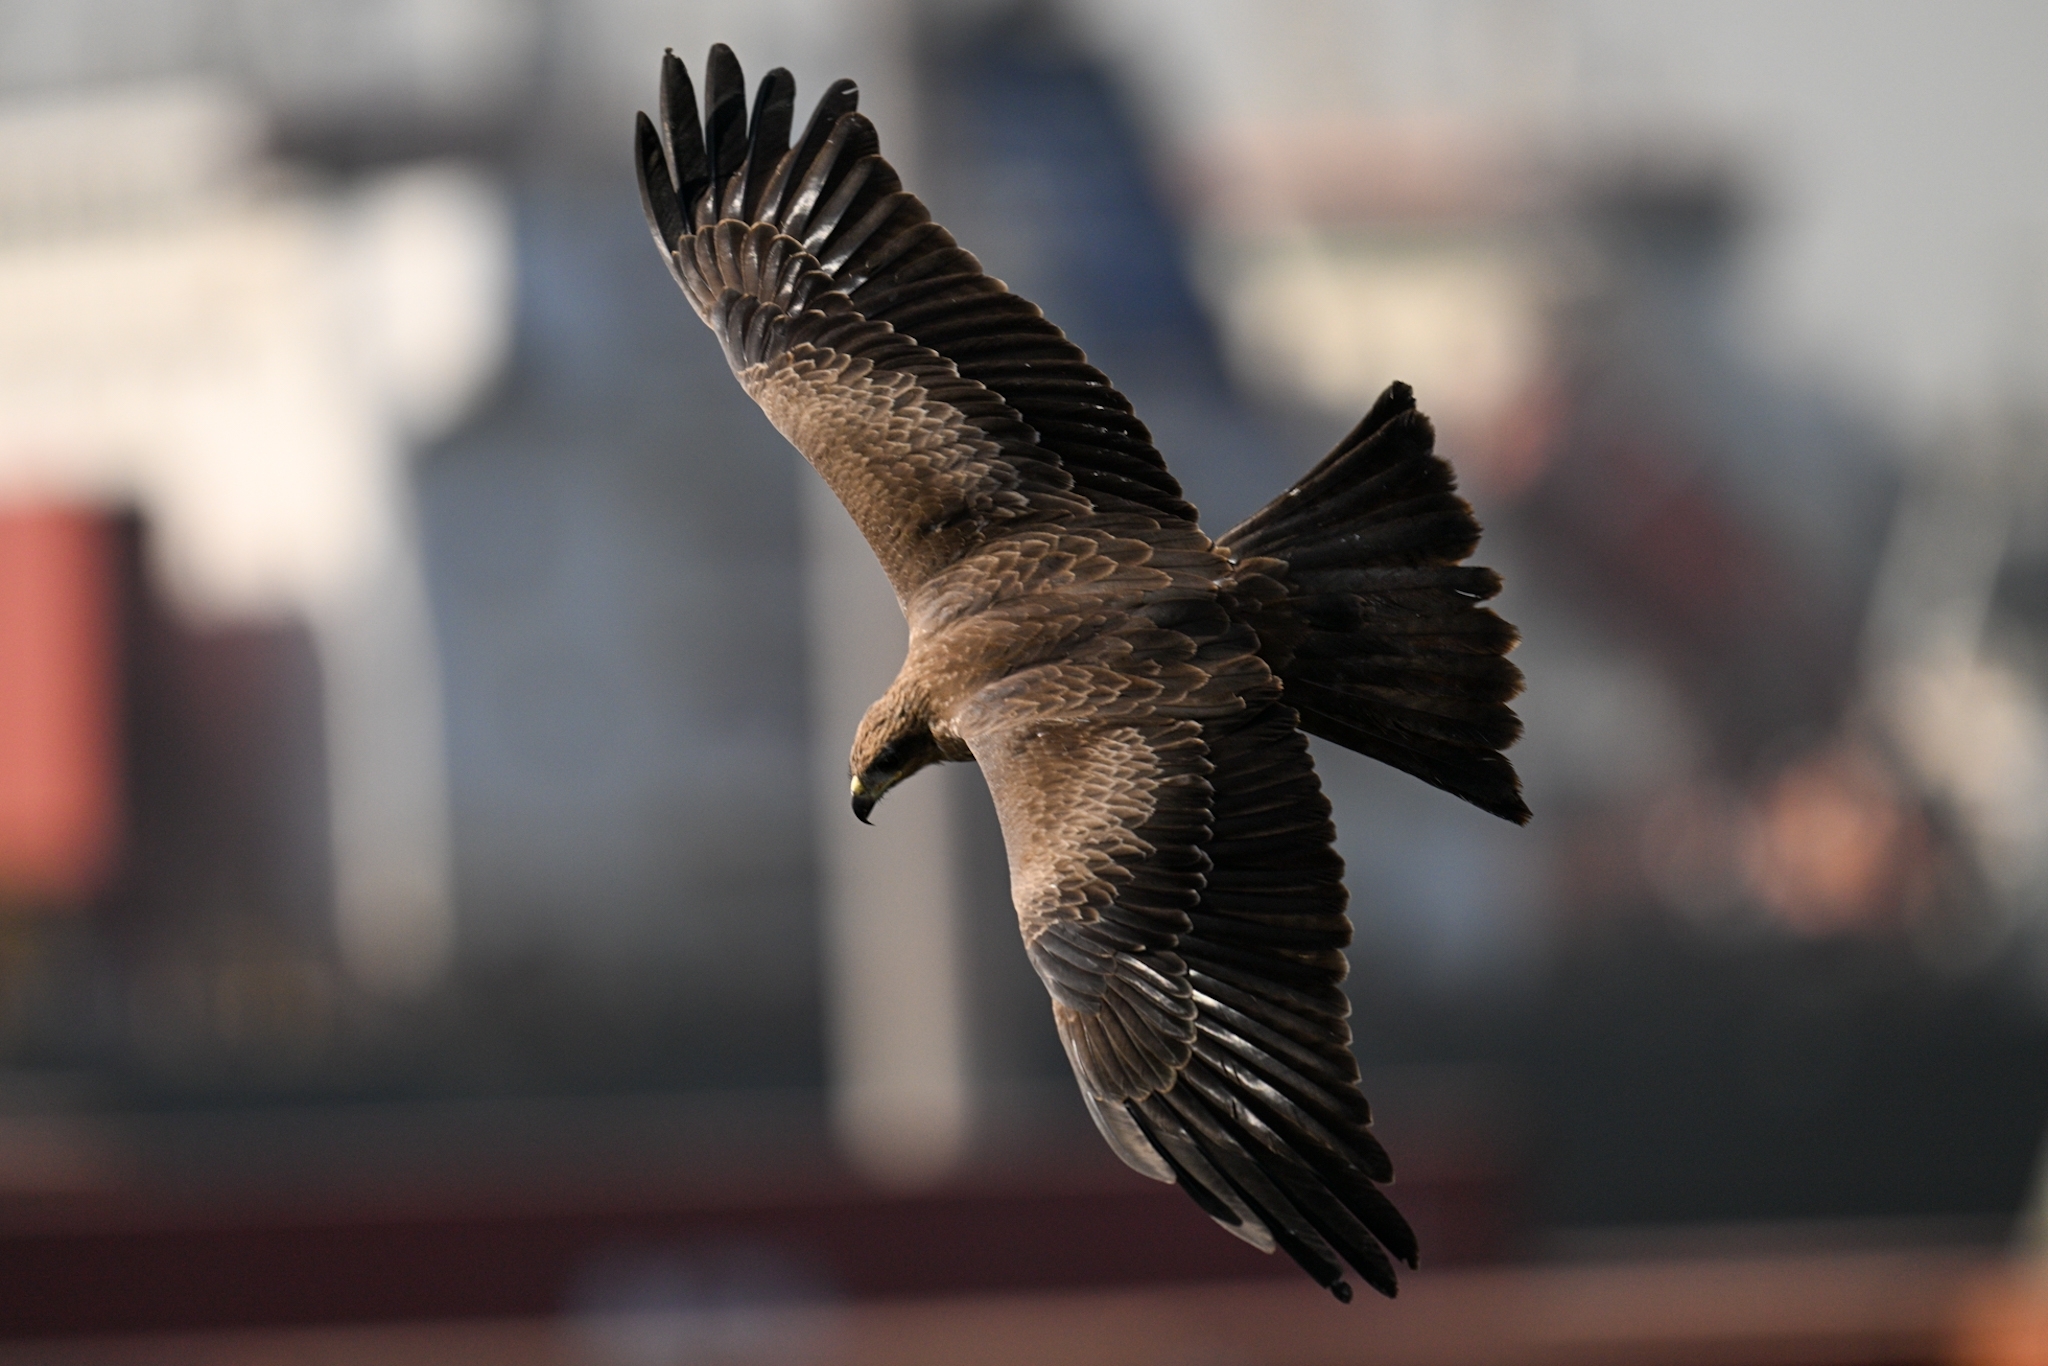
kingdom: Animalia
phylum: Chordata
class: Aves
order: Accipitriformes
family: Accipitridae
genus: Milvus
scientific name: Milvus migrans
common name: Black kite
